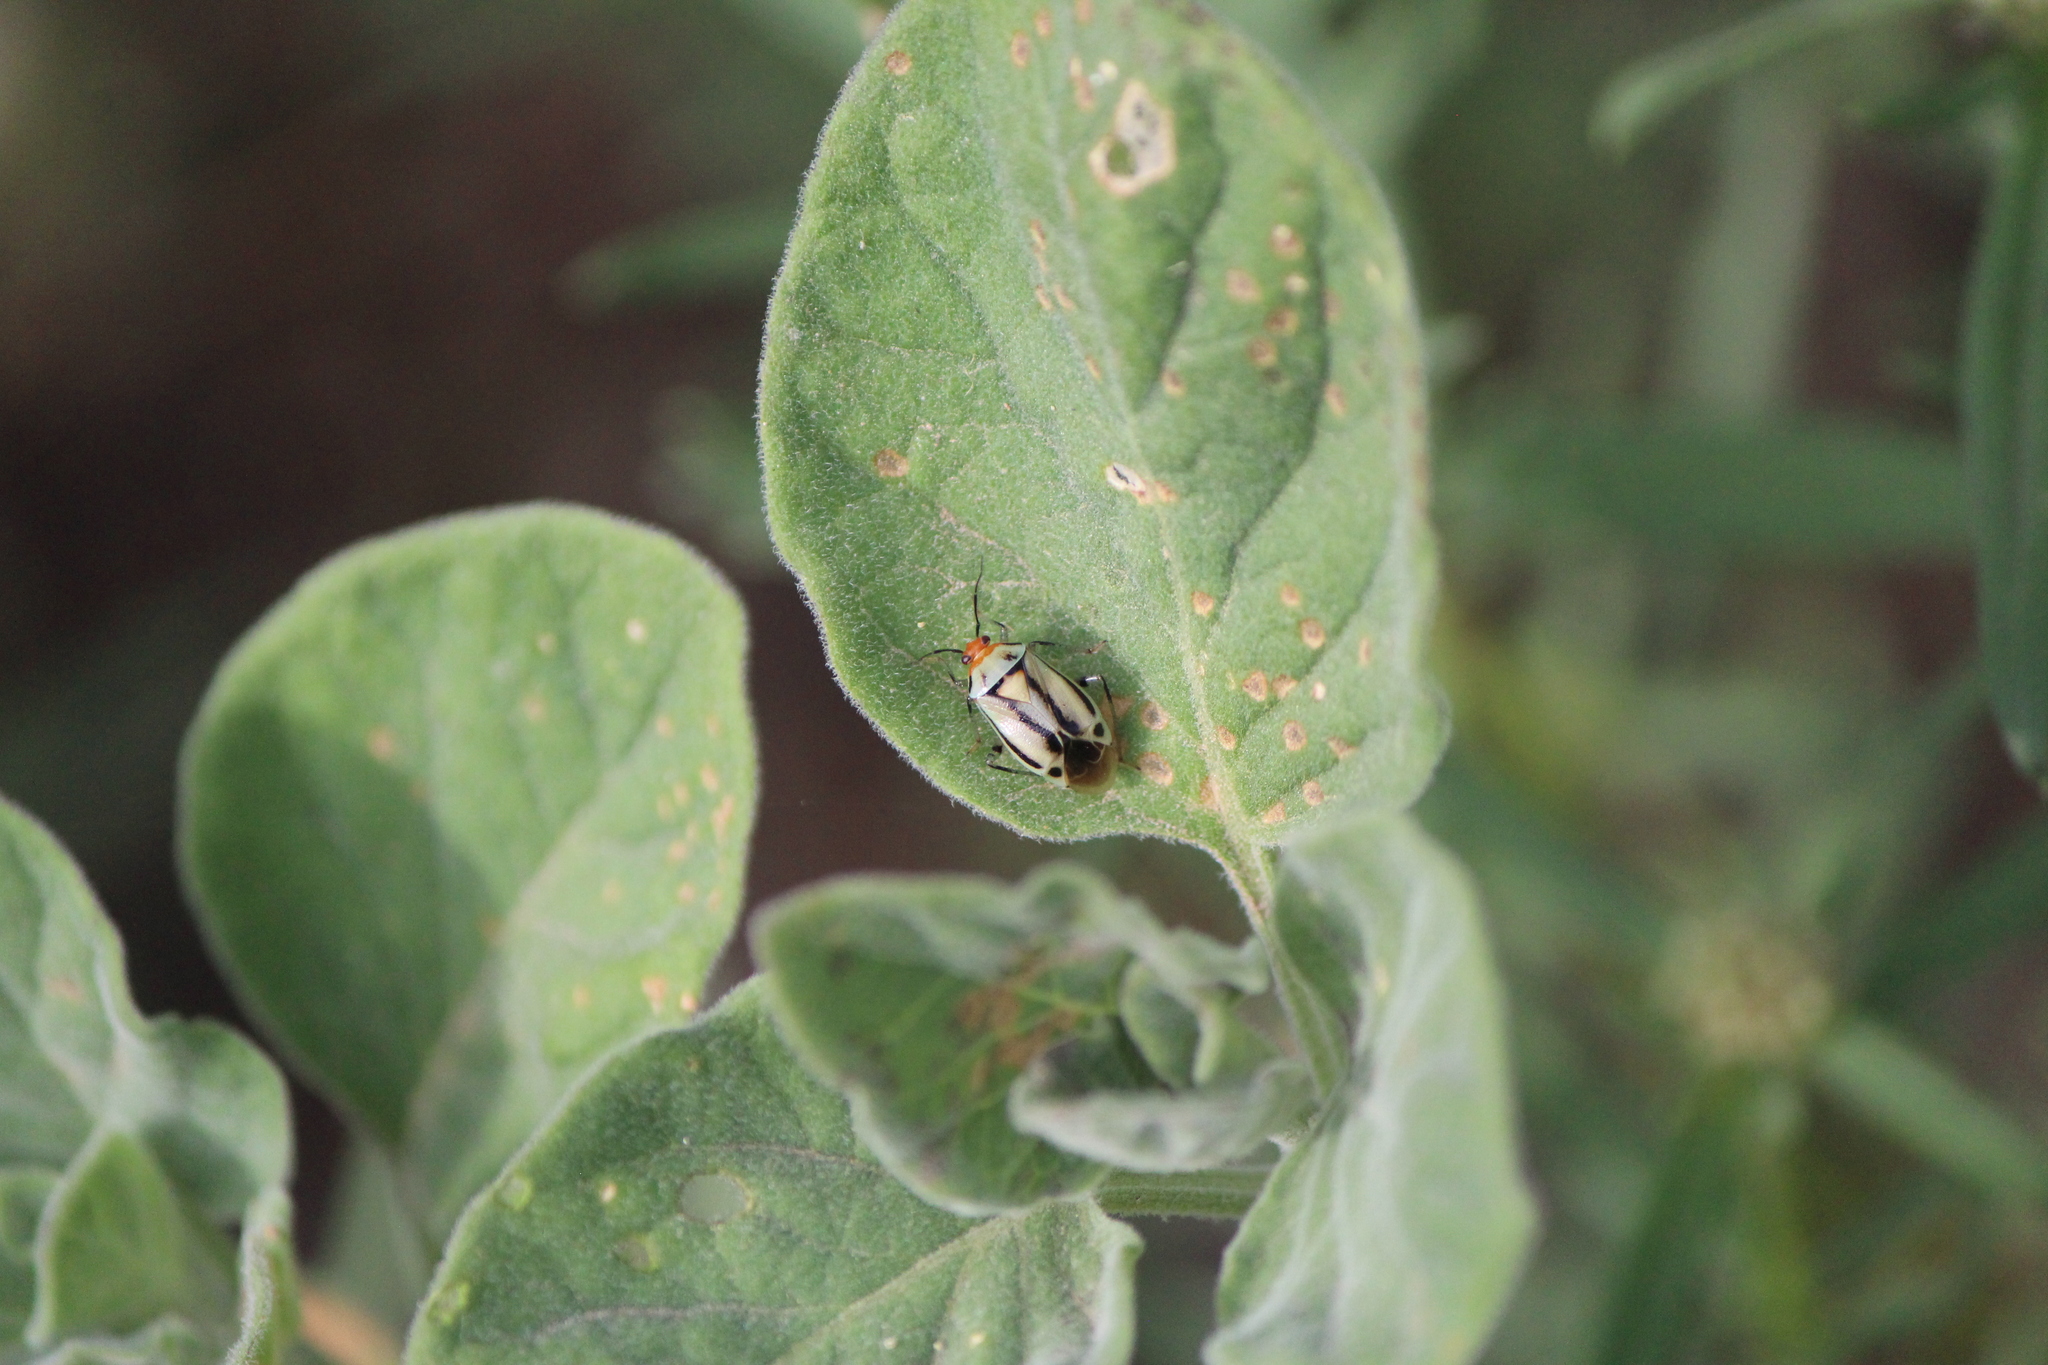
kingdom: Animalia
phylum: Arthropoda
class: Insecta
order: Hemiptera
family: Miridae
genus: Poecilocapsus
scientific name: Poecilocapsus nigriger
